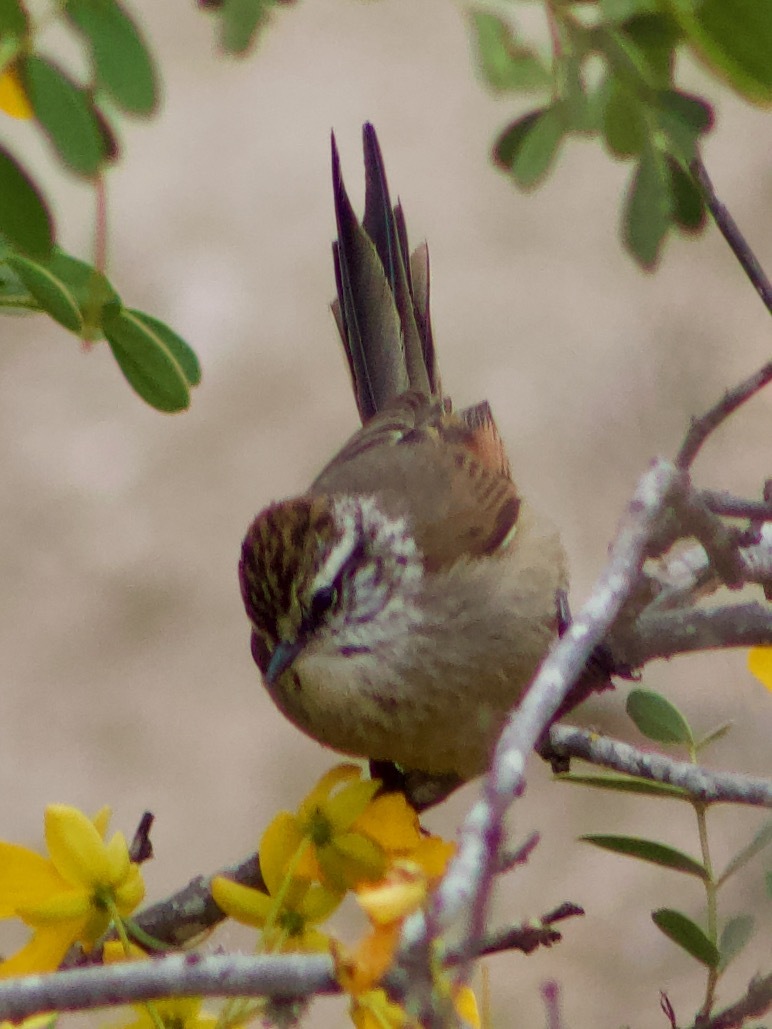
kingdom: Animalia
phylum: Chordata
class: Aves
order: Passeriformes
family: Furnariidae
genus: Leptasthenura
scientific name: Leptasthenura aegithaloides
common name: Plain-mantled tit-spinetail
